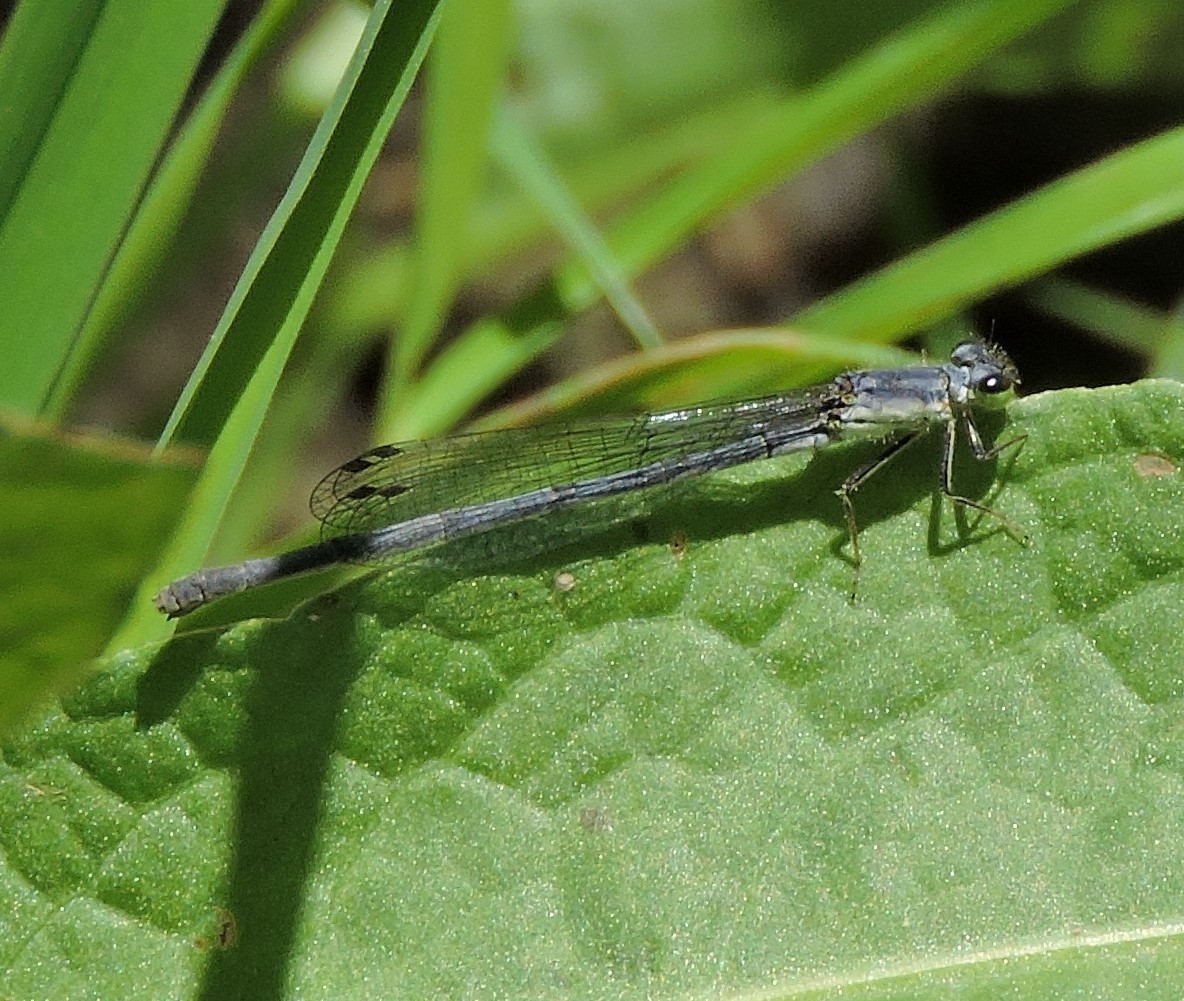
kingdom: Animalia
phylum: Arthropoda
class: Insecta
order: Odonata
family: Coenagrionidae
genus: Ischnura
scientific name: Ischnura posita
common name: Fragile forktail
